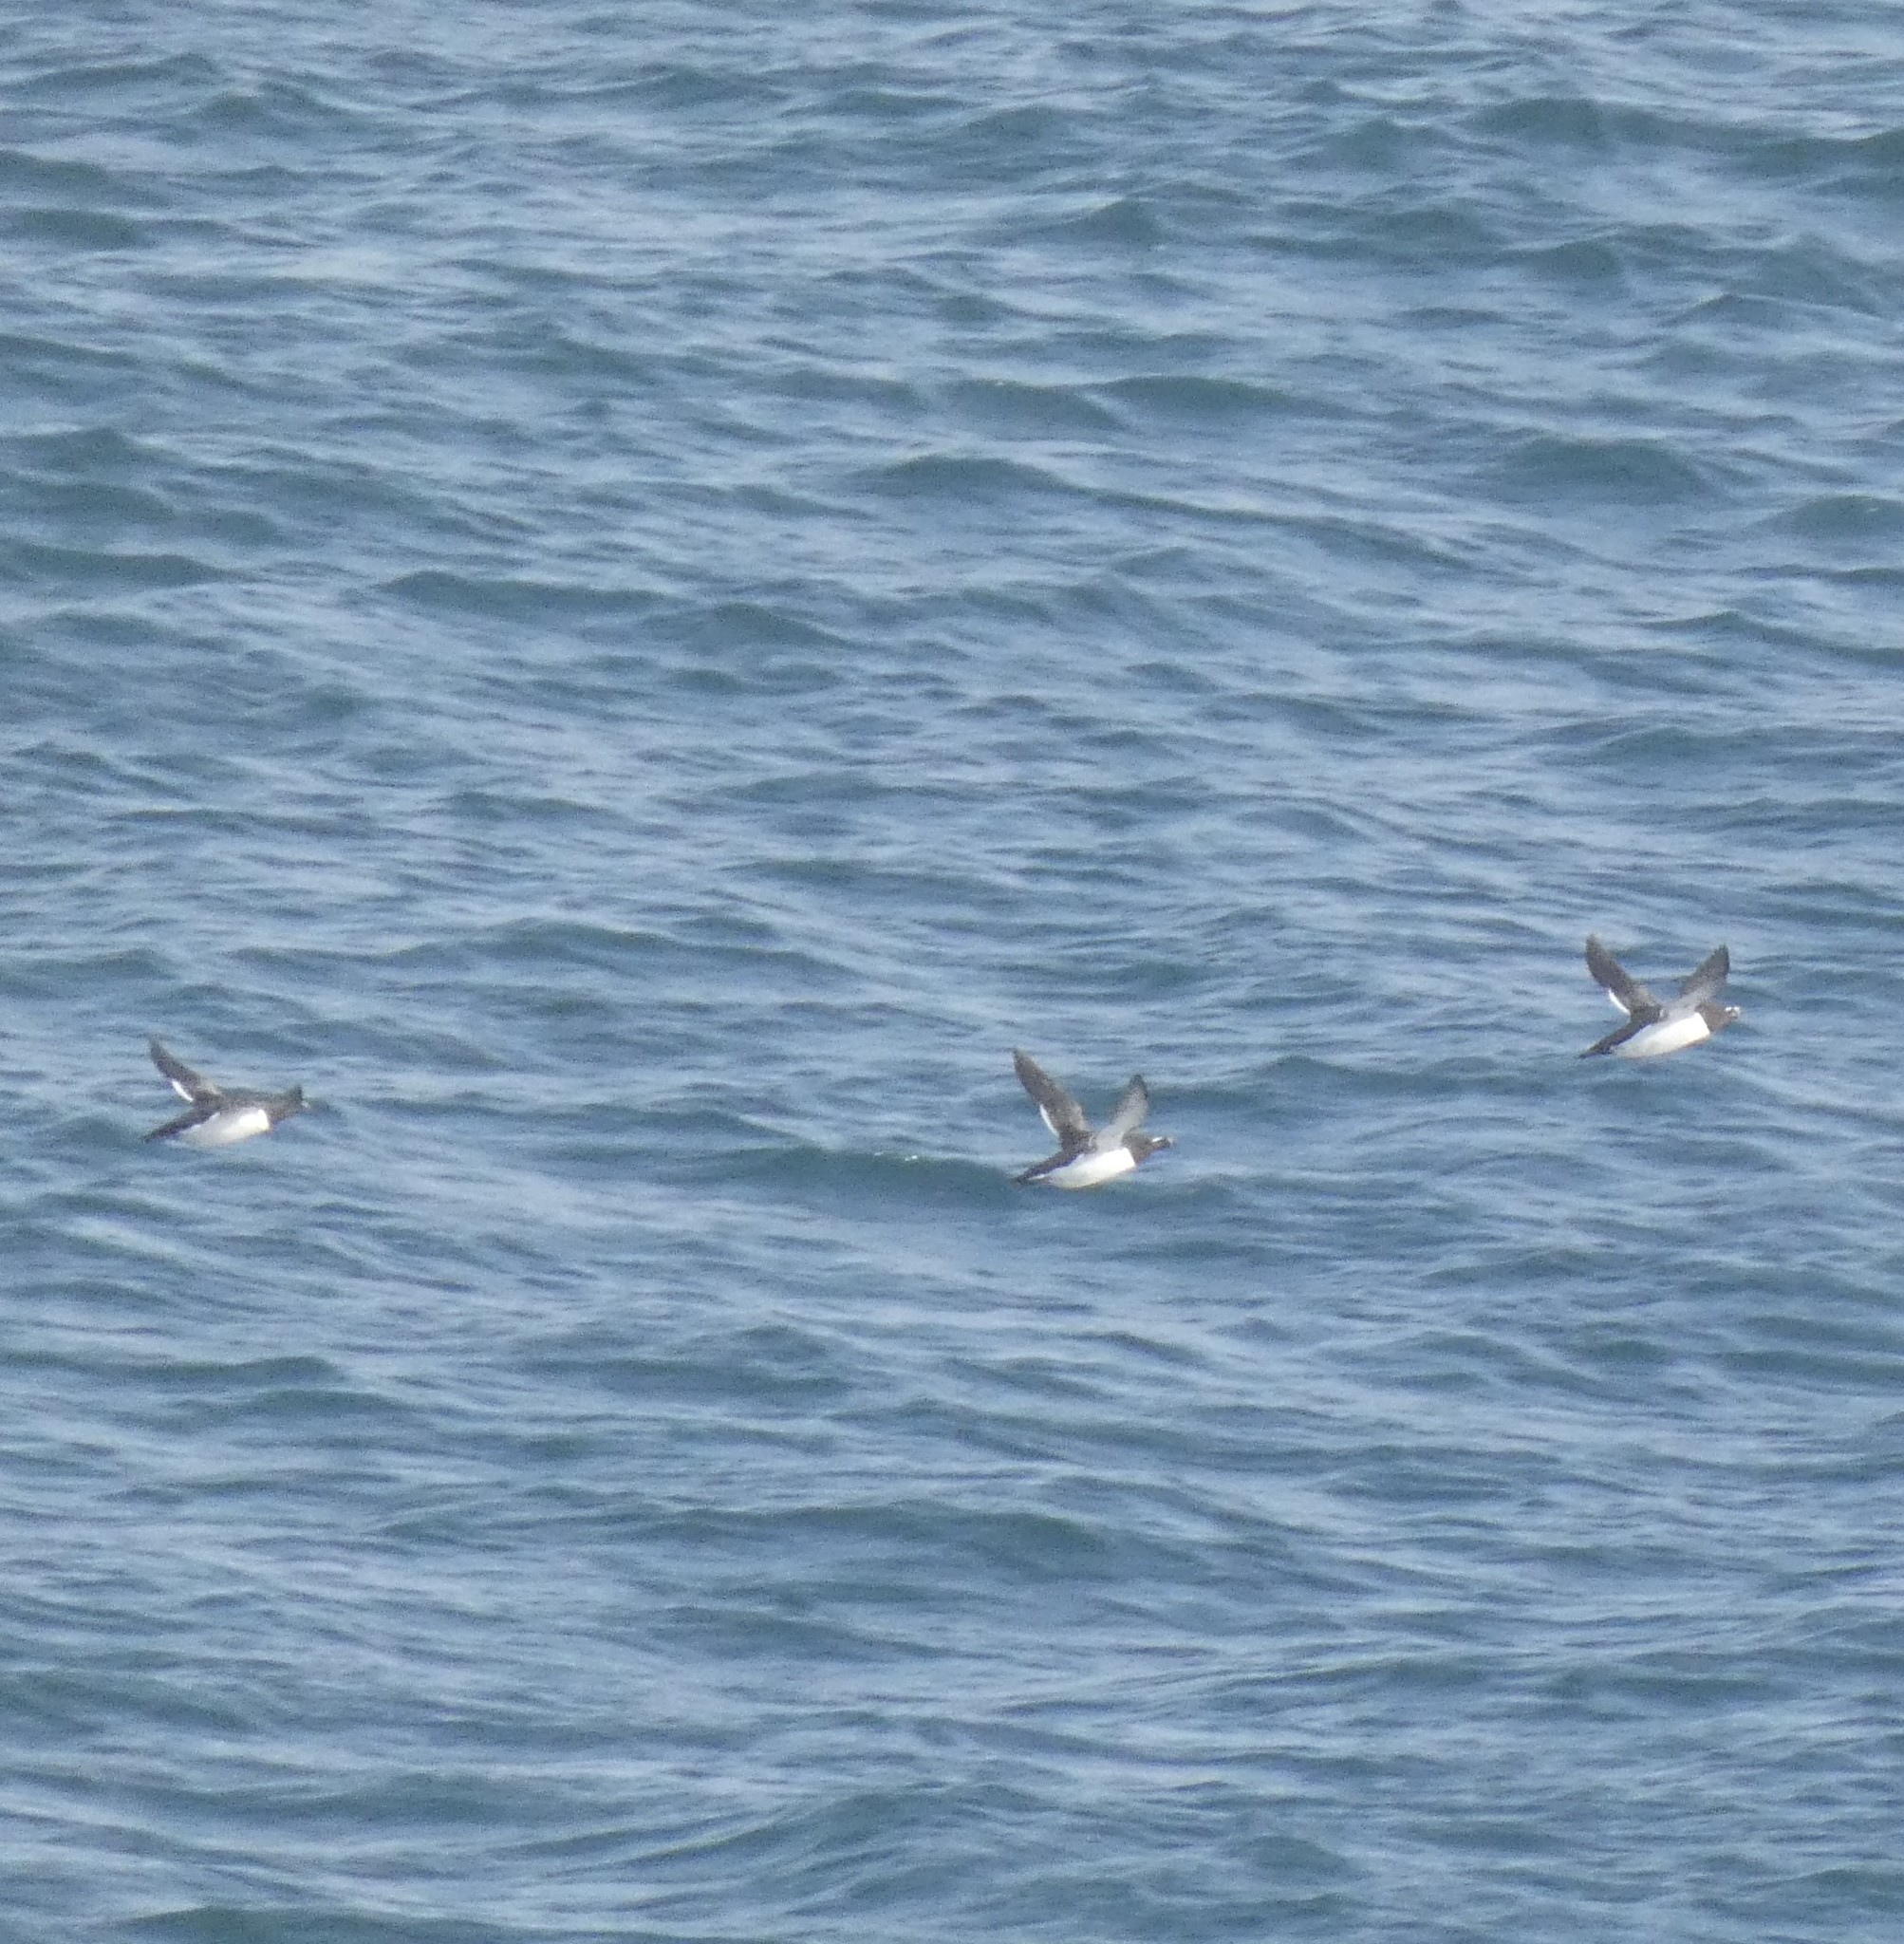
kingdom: Animalia
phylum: Chordata
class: Aves
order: Charadriiformes
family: Alcidae
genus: Alca
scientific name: Alca torda
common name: Razorbill
